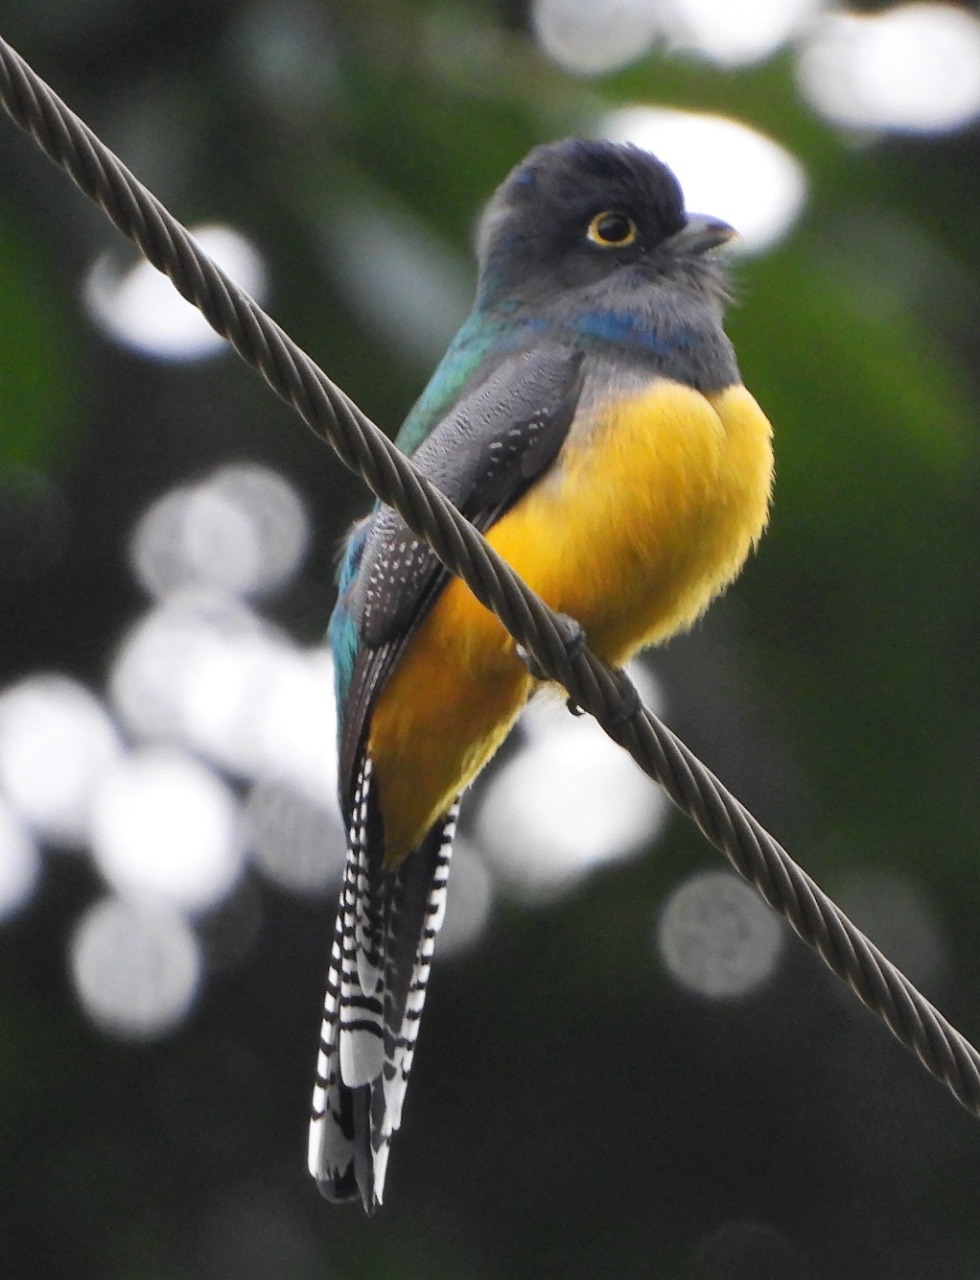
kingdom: Animalia
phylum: Chordata
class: Aves
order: Trogoniformes
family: Trogonidae
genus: Trogon
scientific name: Trogon caligatus
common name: Gartered trogon
